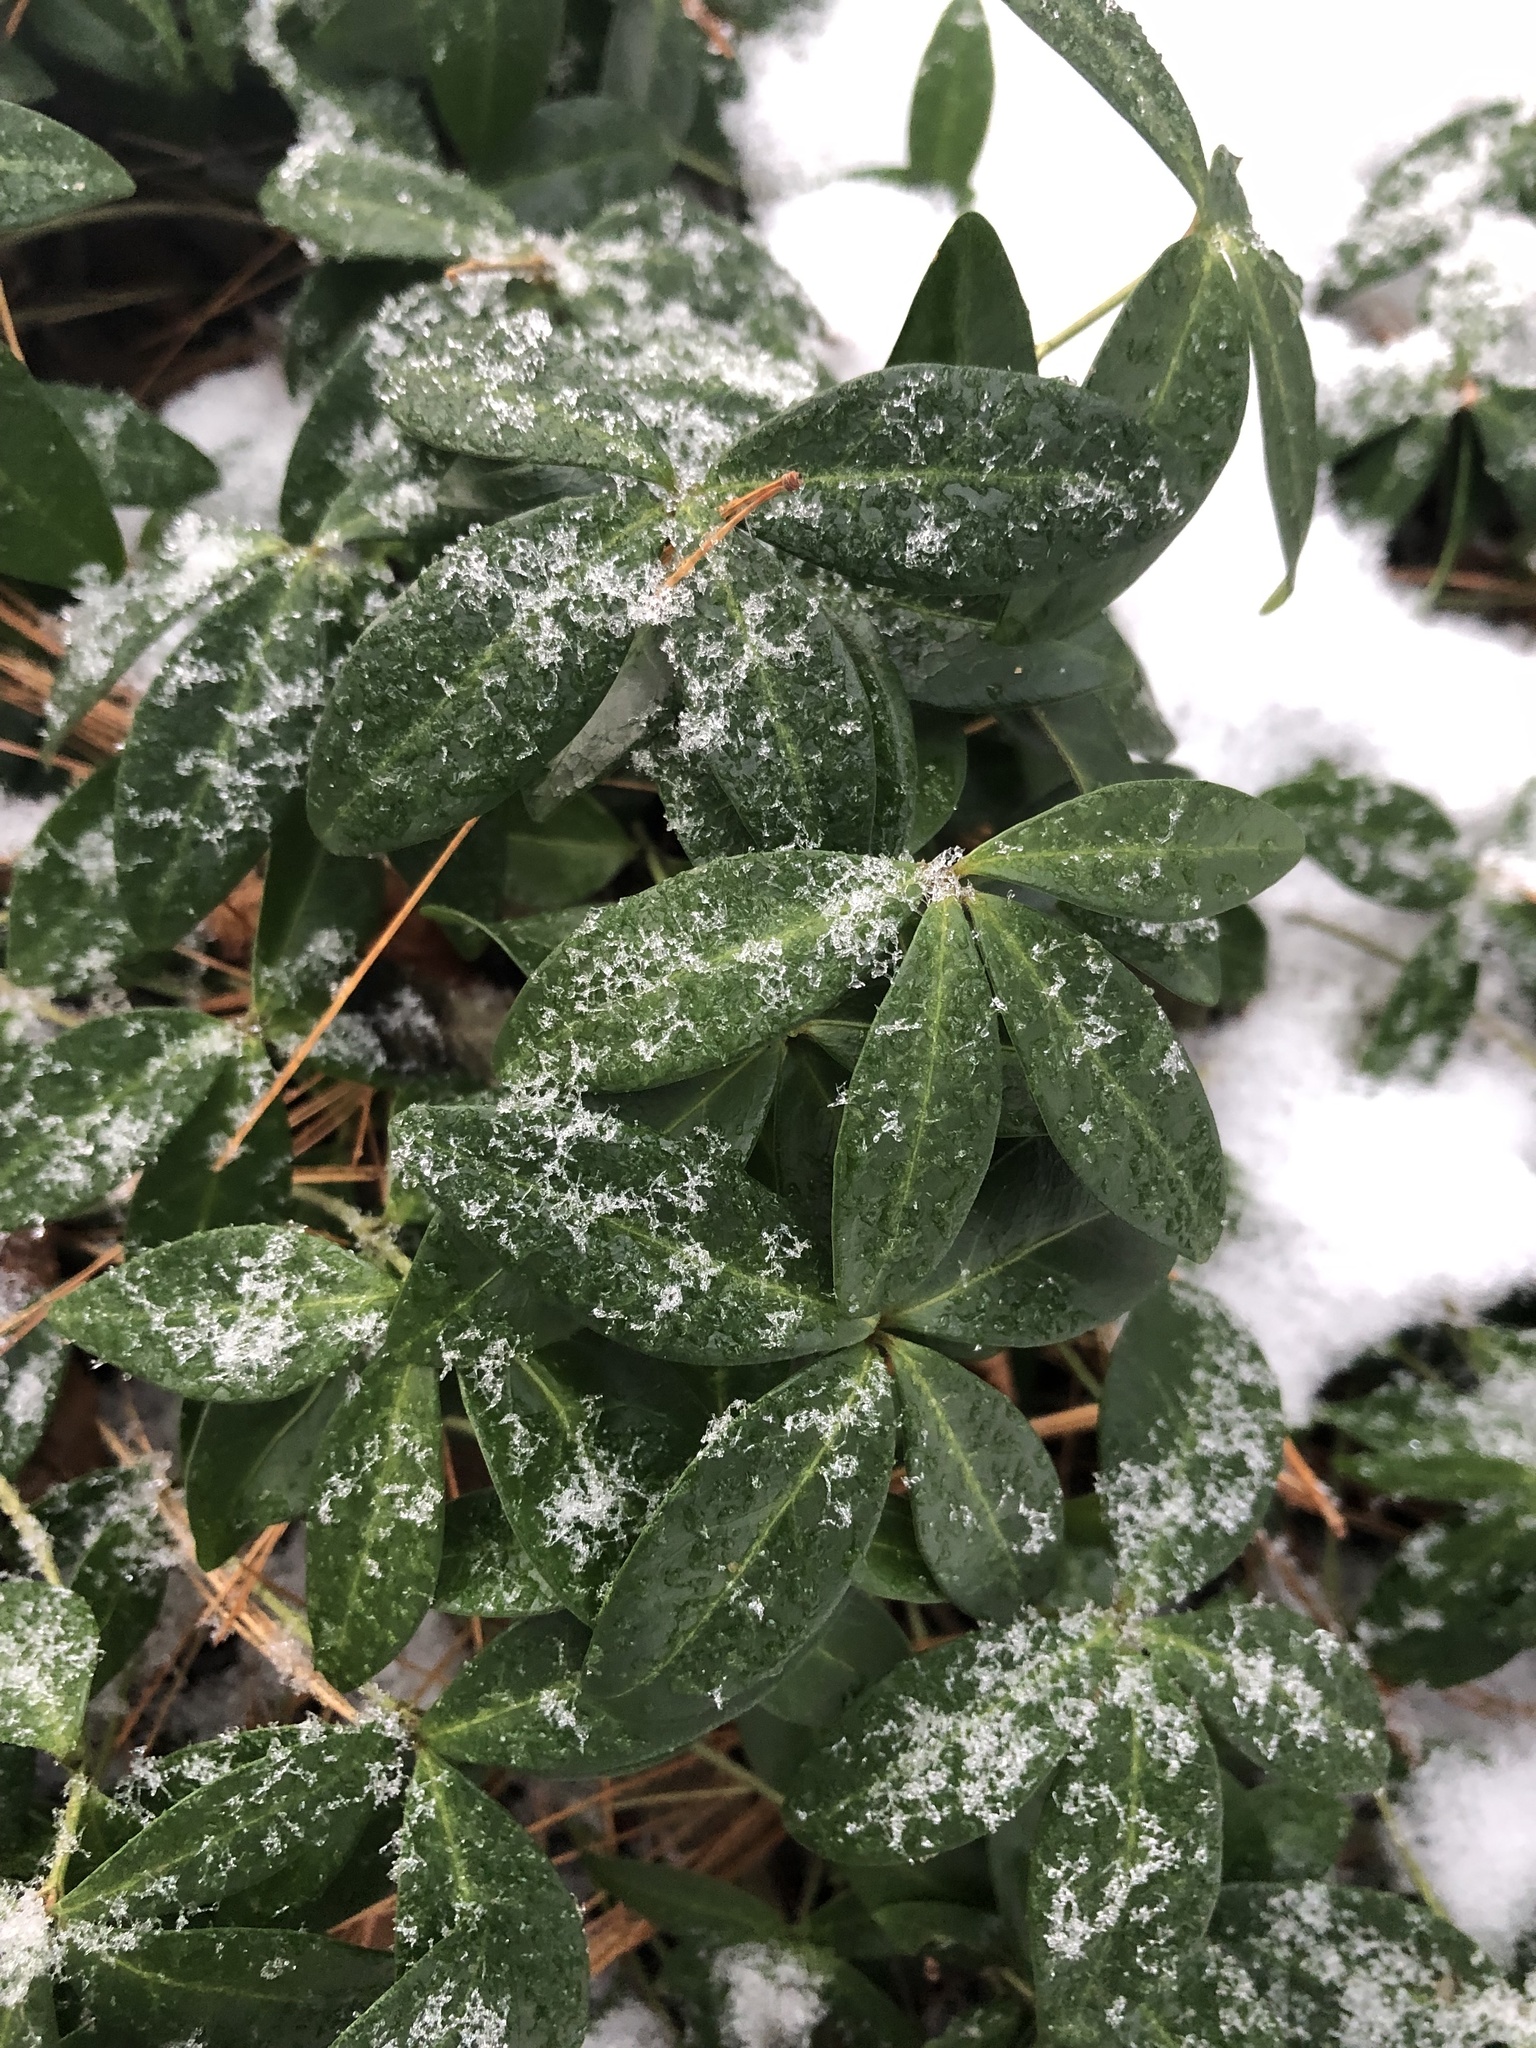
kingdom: Plantae
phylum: Tracheophyta
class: Magnoliopsida
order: Gentianales
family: Apocynaceae
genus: Vinca
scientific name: Vinca minor
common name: Lesser periwinkle
